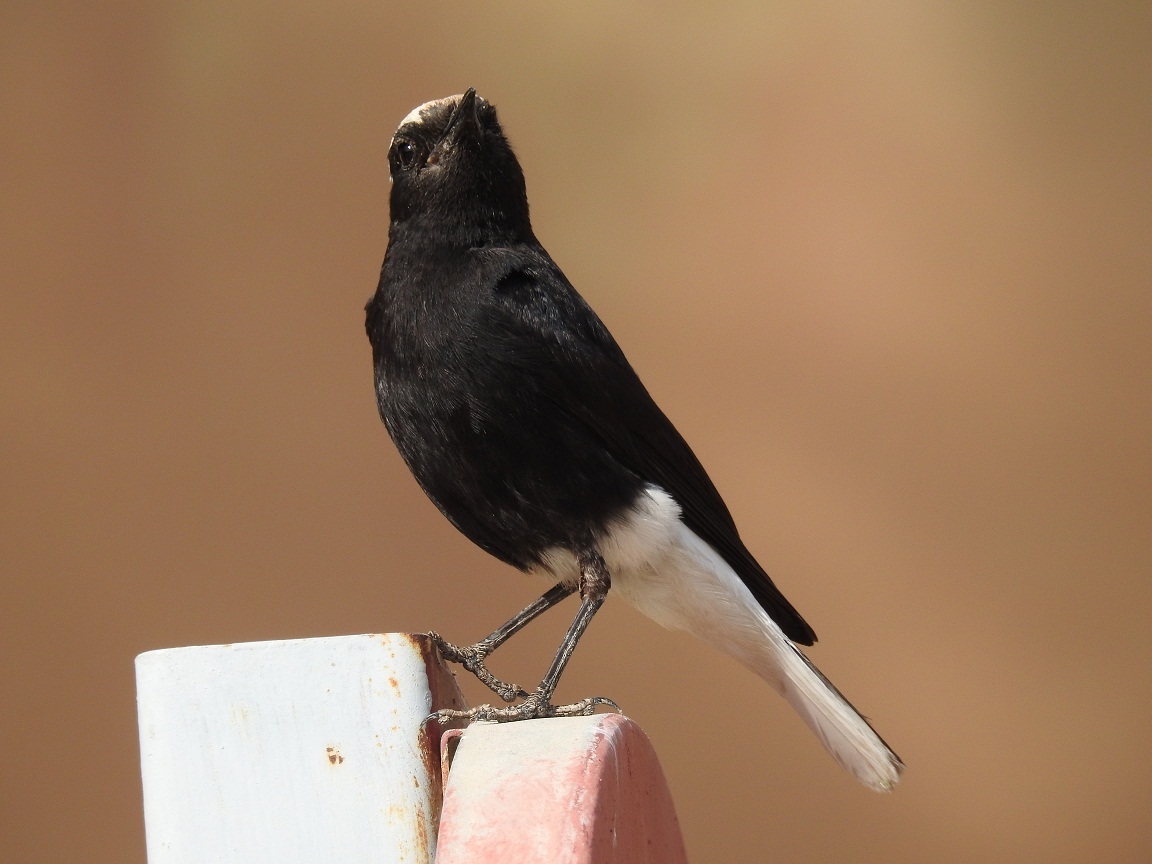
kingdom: Animalia
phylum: Chordata
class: Aves
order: Passeriformes
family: Muscicapidae
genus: Oenanthe
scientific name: Oenanthe leucopyga
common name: White-crowned wheatear
